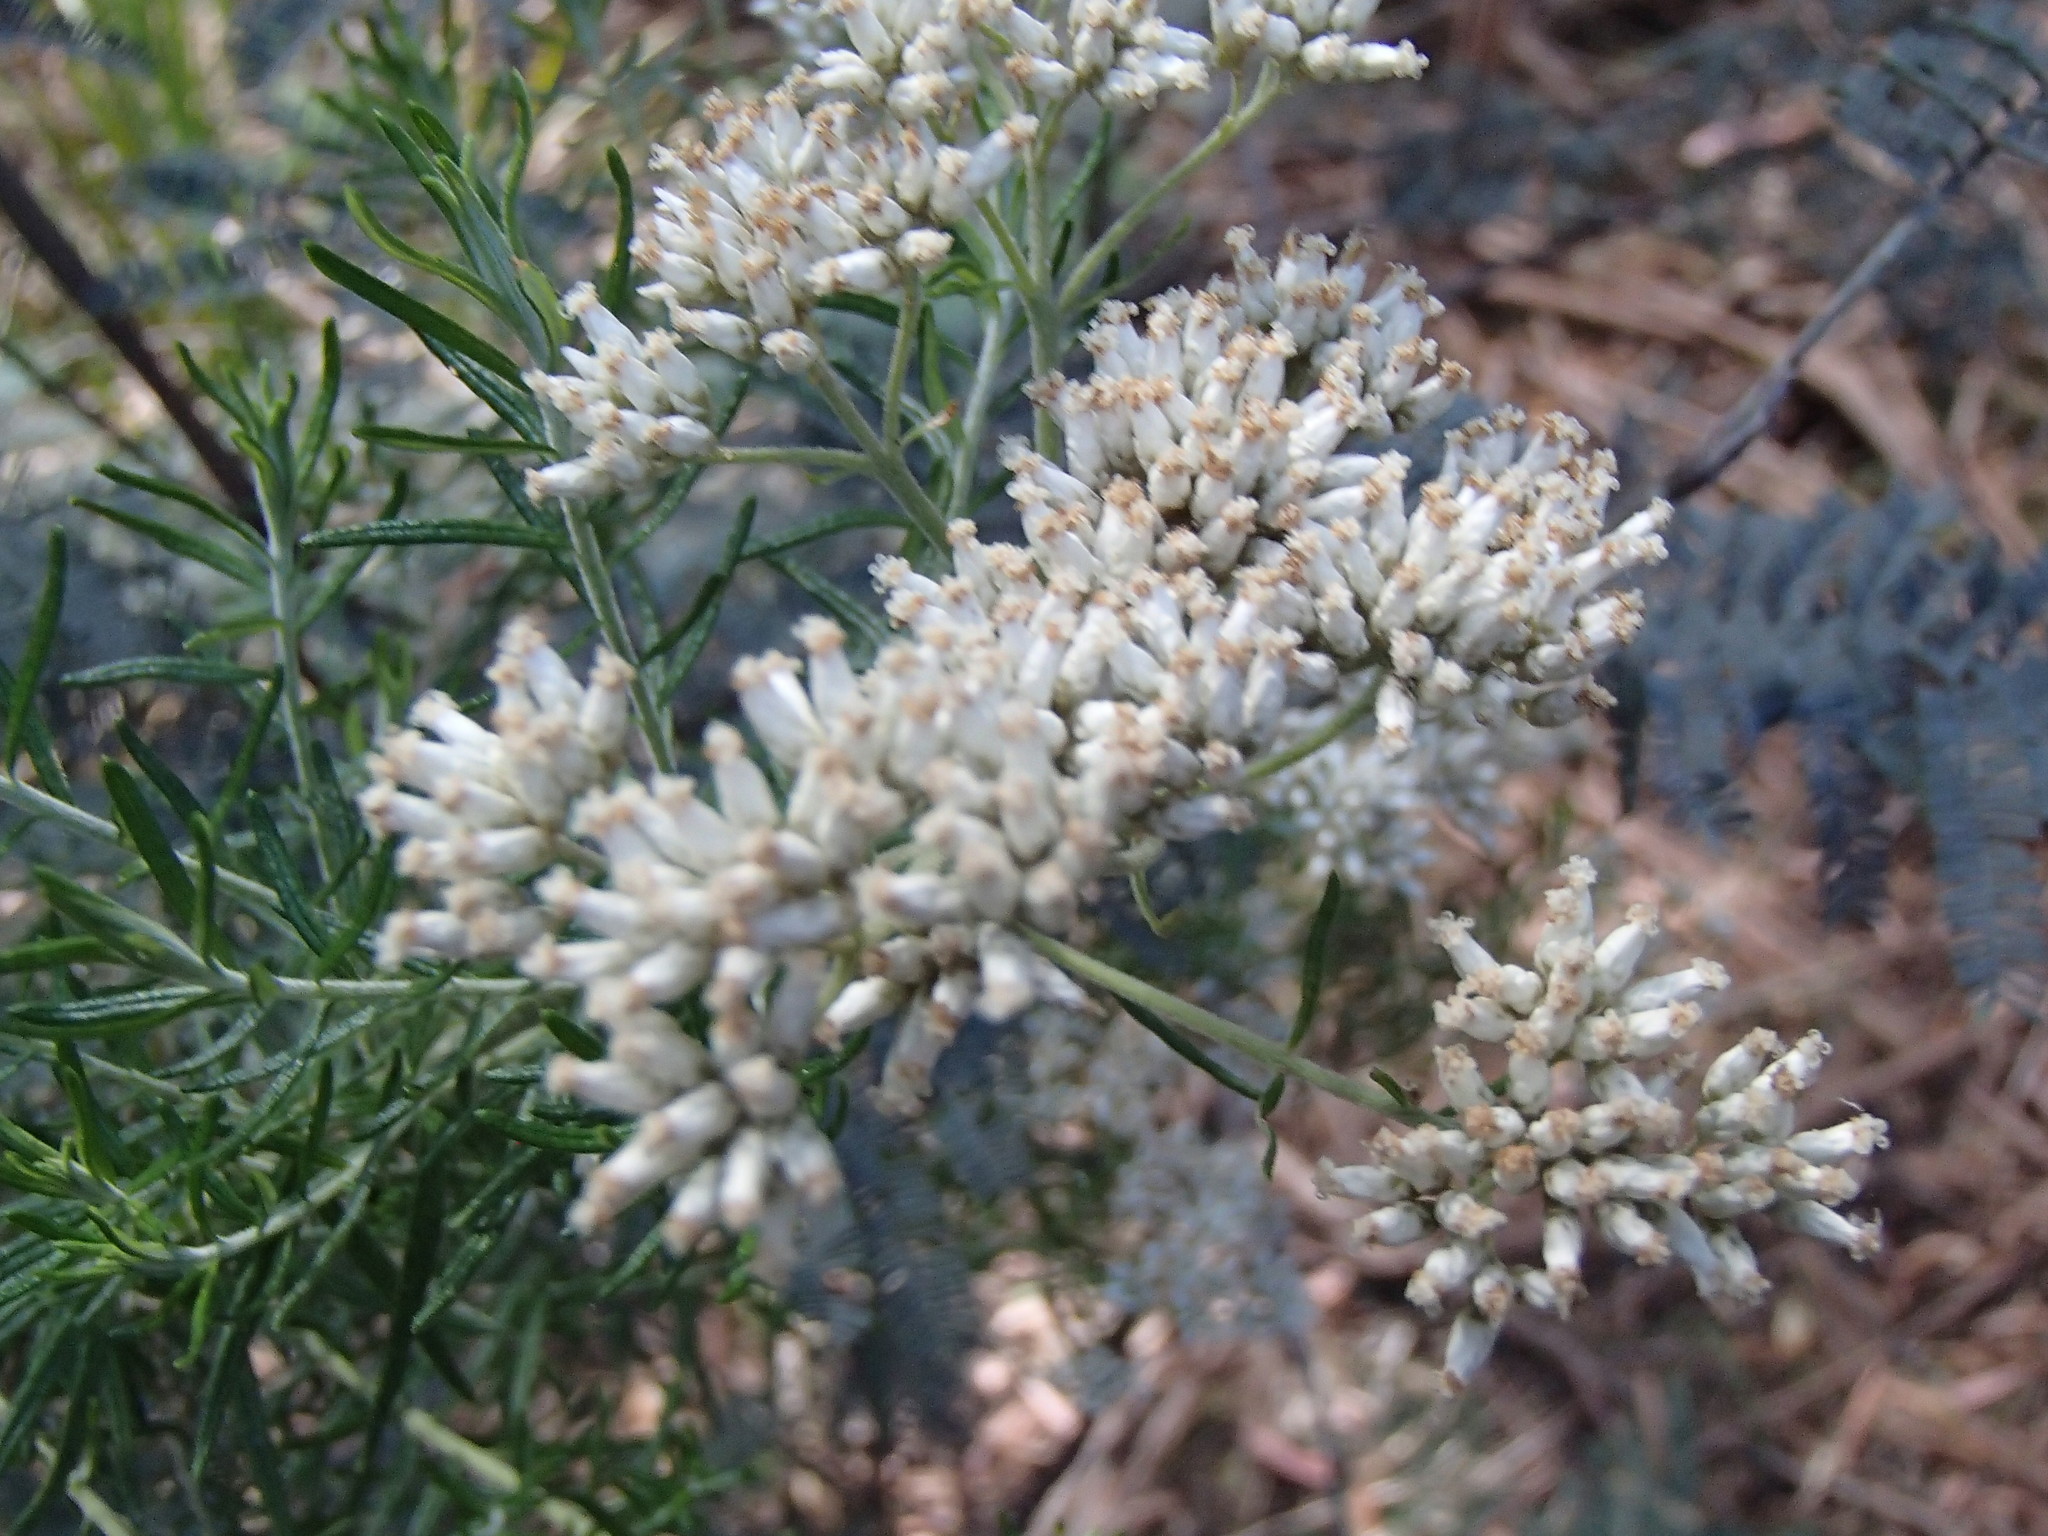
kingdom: Plantae
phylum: Tracheophyta
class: Magnoliopsida
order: Asterales
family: Asteraceae
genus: Cassinia
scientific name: Cassinia aculeata
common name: Australian tauhinu
